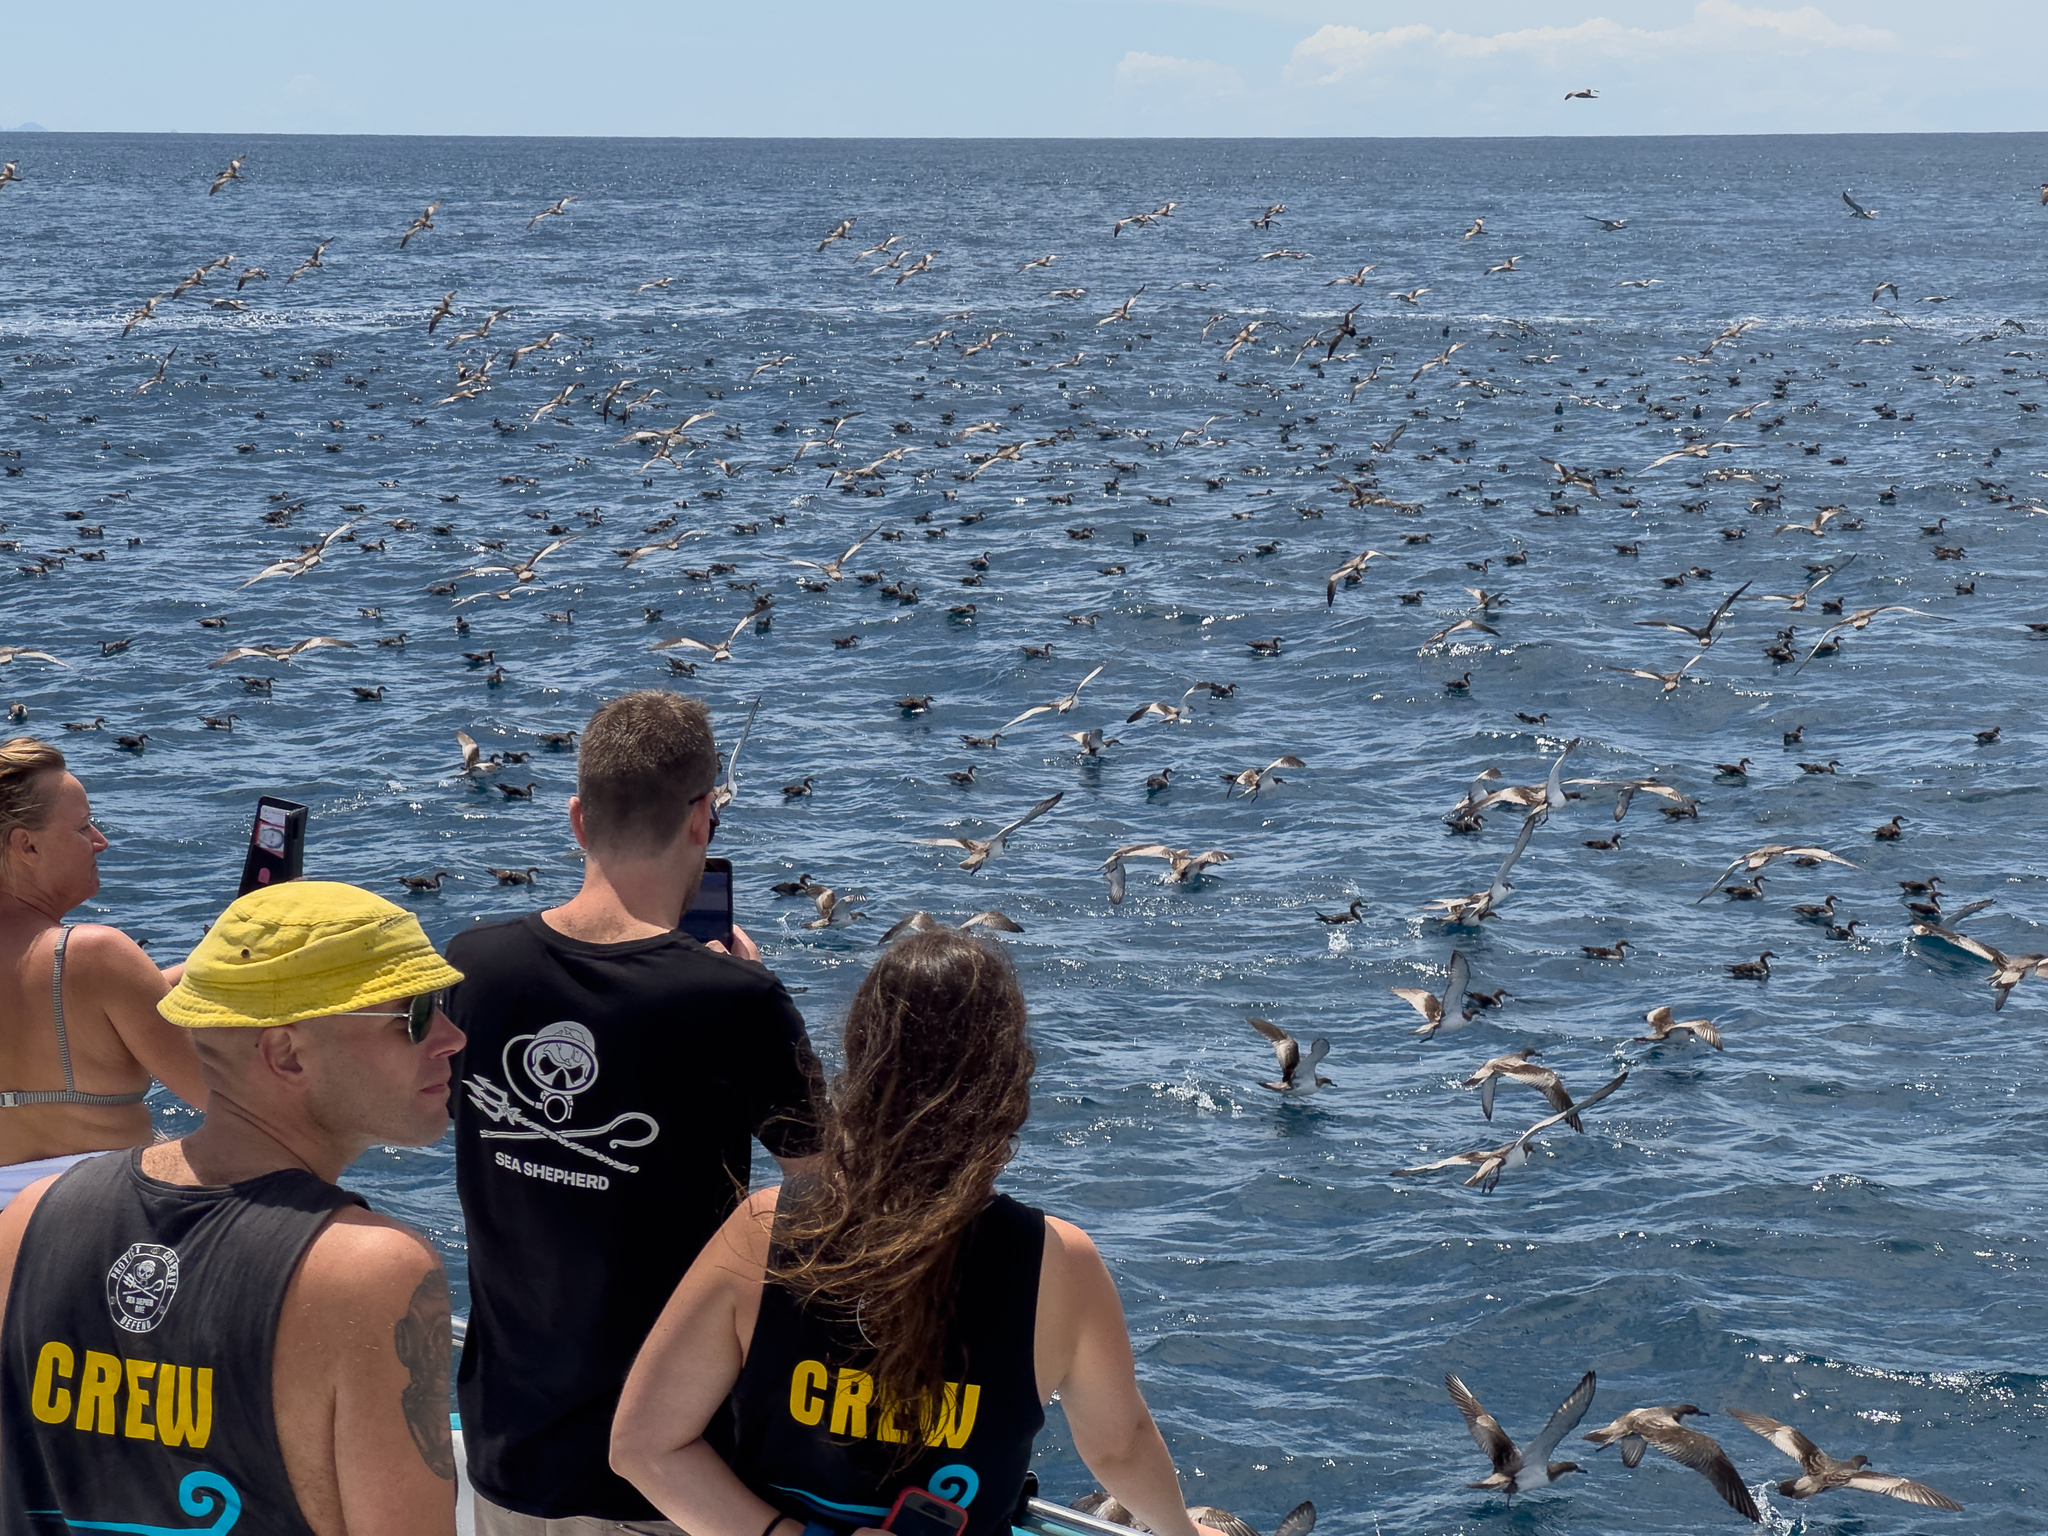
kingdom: Animalia
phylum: Chordata
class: Aves
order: Procellariiformes
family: Procellariidae
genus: Puffinus
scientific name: Puffinus bulleri
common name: Buller's shearwater
